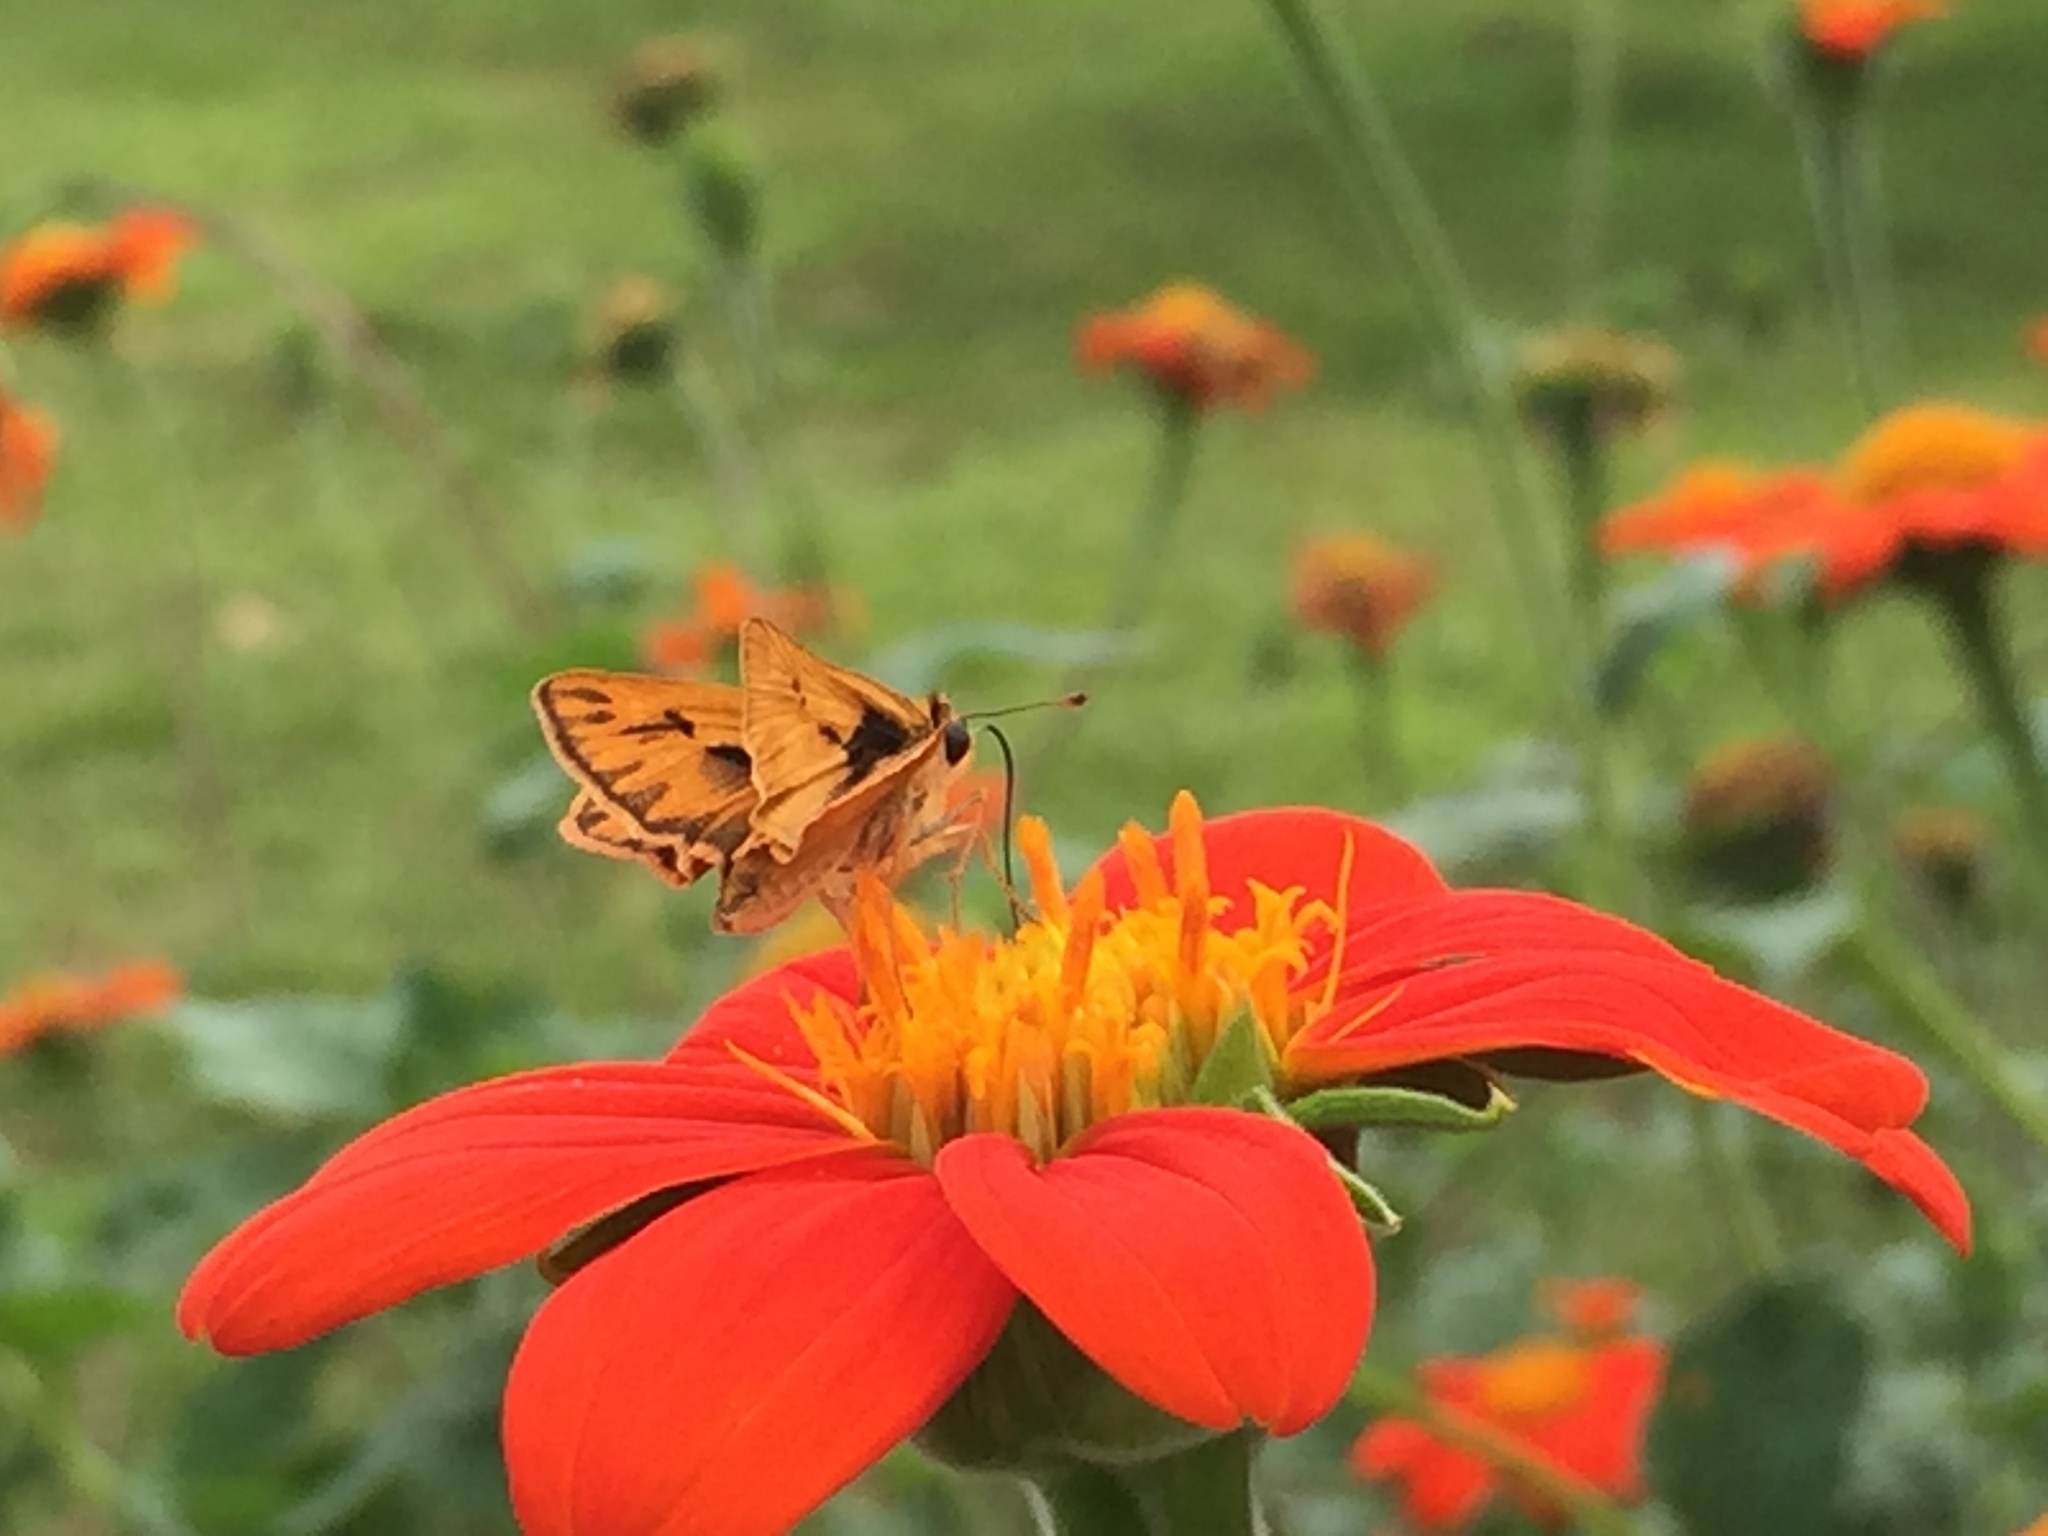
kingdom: Animalia
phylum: Arthropoda
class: Insecta
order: Lepidoptera
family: Hesperiidae
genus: Hylephila
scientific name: Hylephila phyleus
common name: Fiery skipper
